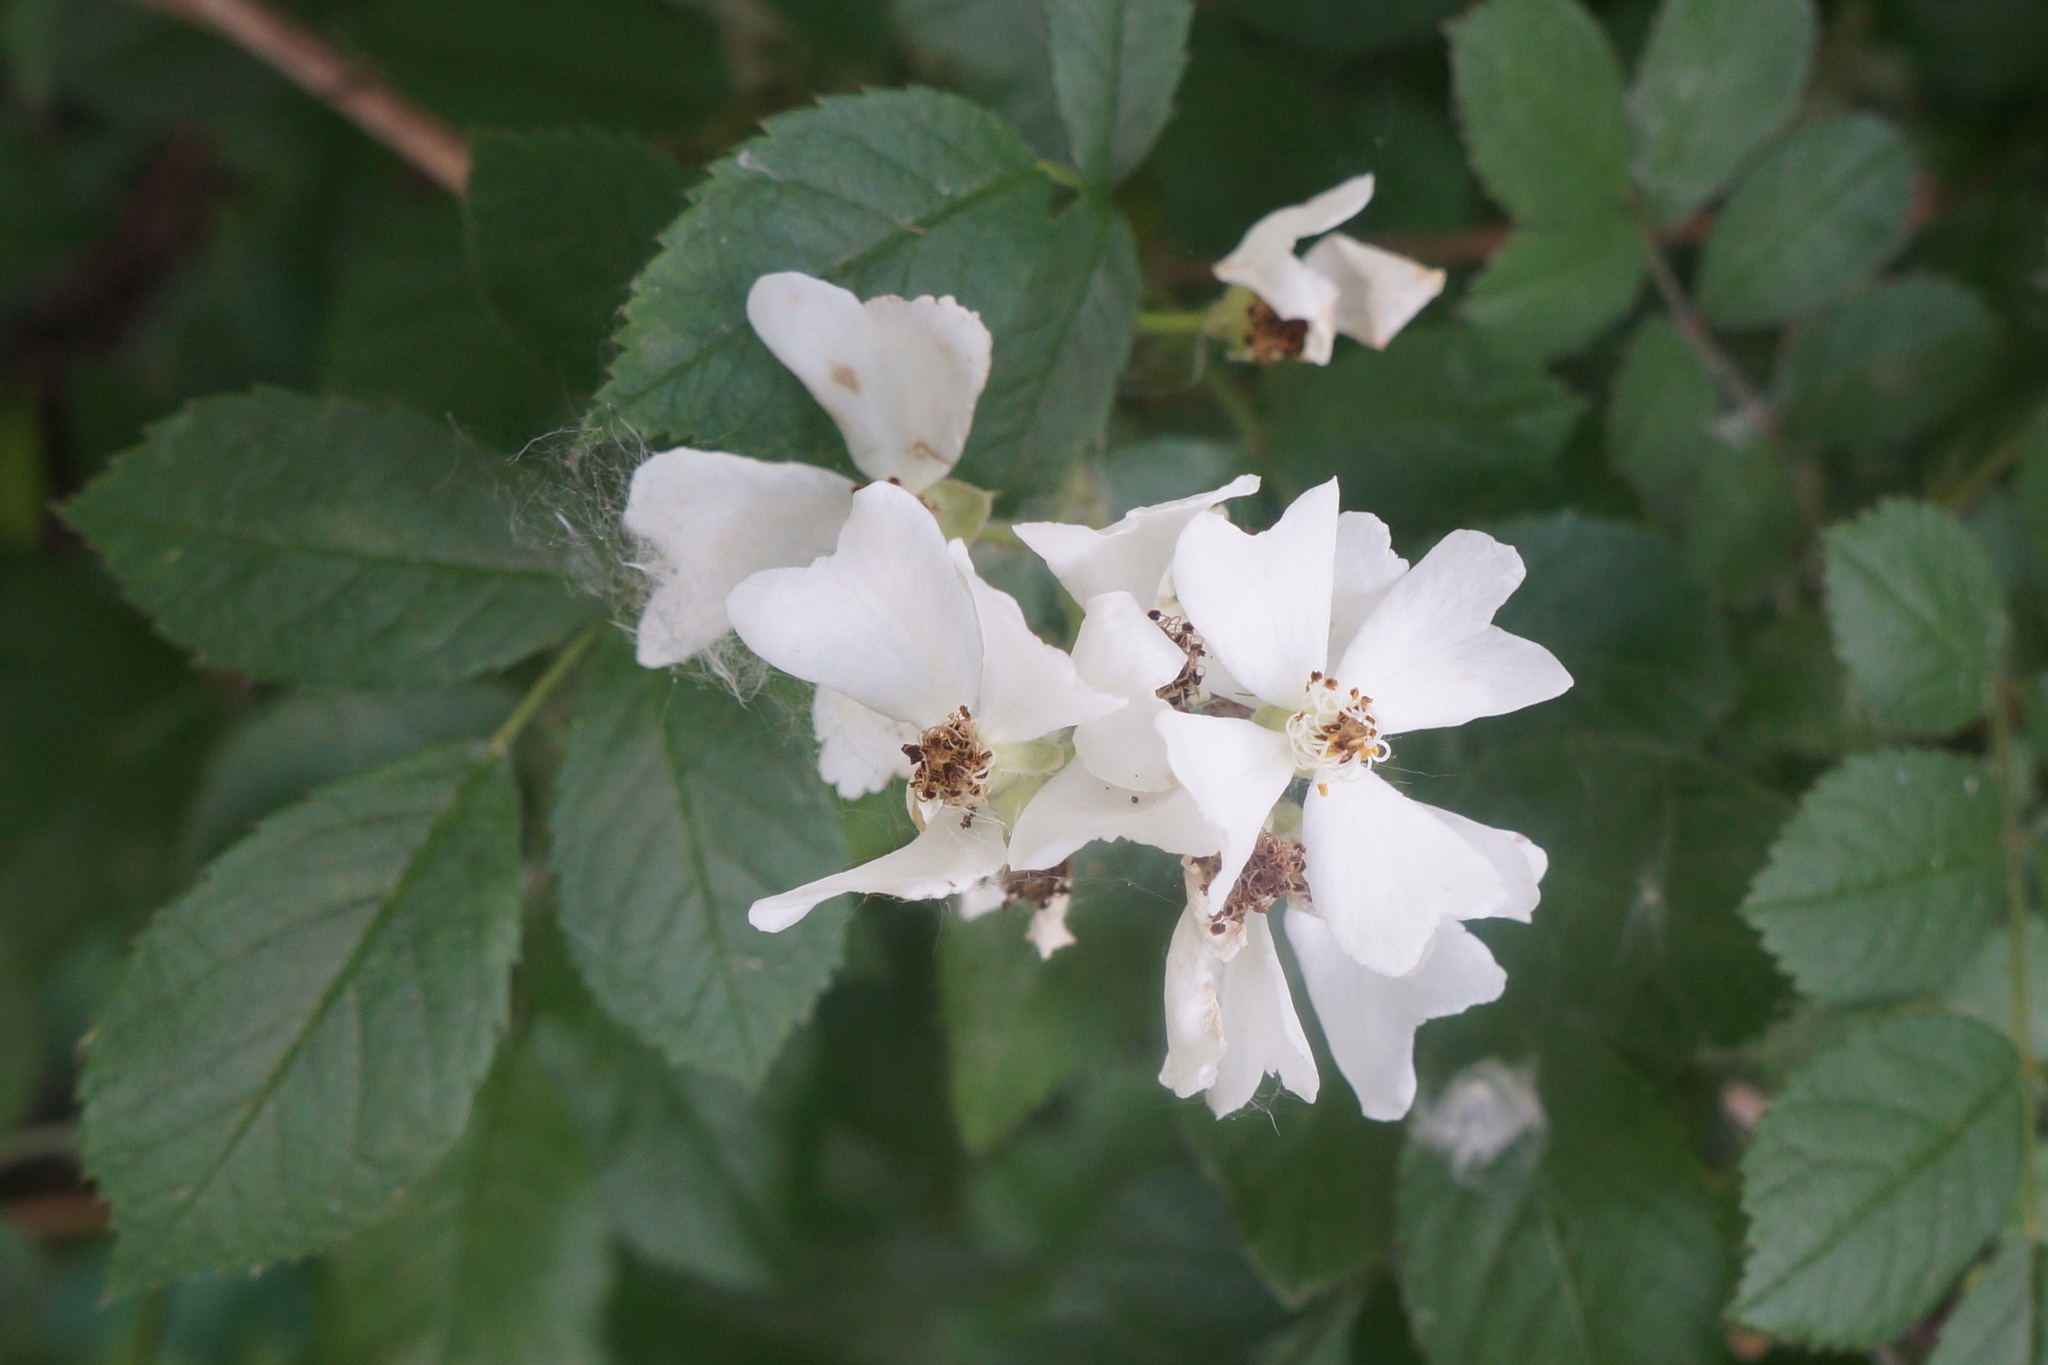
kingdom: Plantae
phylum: Tracheophyta
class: Magnoliopsida
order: Rosales
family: Rosaceae
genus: Rosa
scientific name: Rosa multiflora
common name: Multiflora rose
